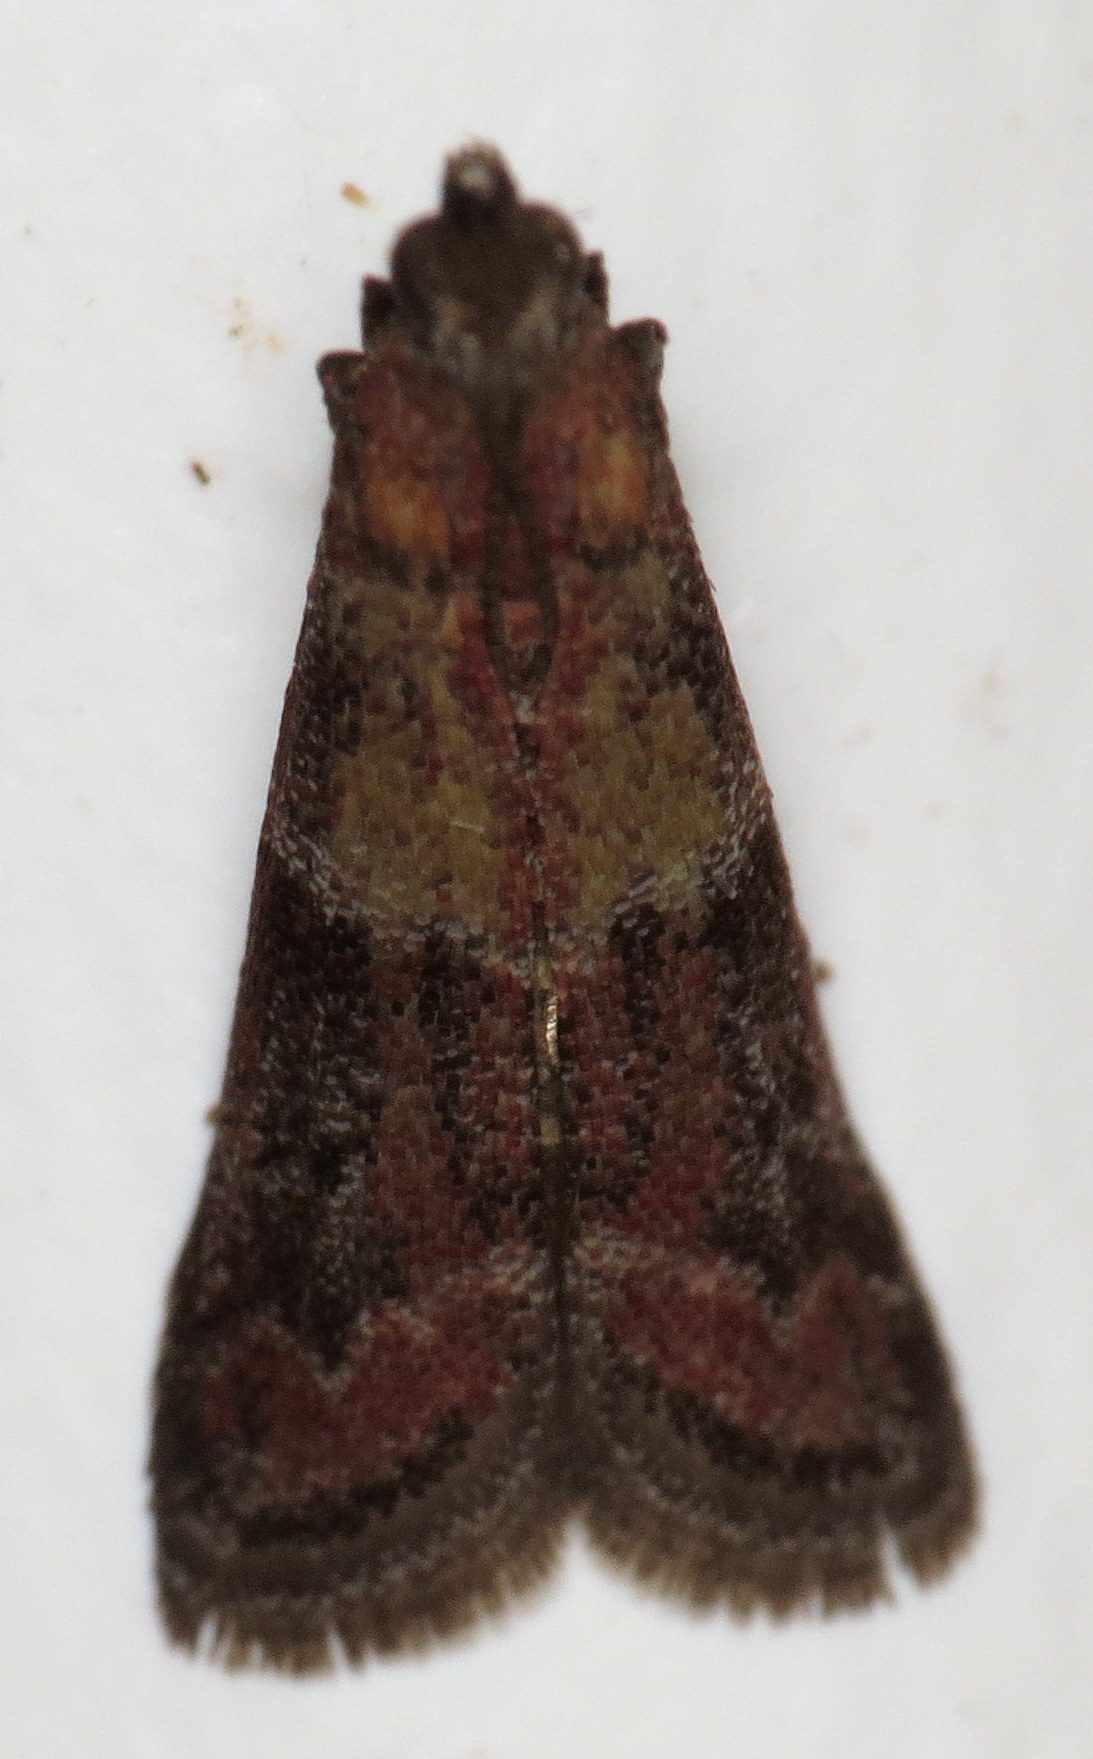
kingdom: Animalia
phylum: Arthropoda
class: Insecta
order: Lepidoptera
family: Pyralidae
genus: Ephestiodes
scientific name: Ephestiodes infimella
